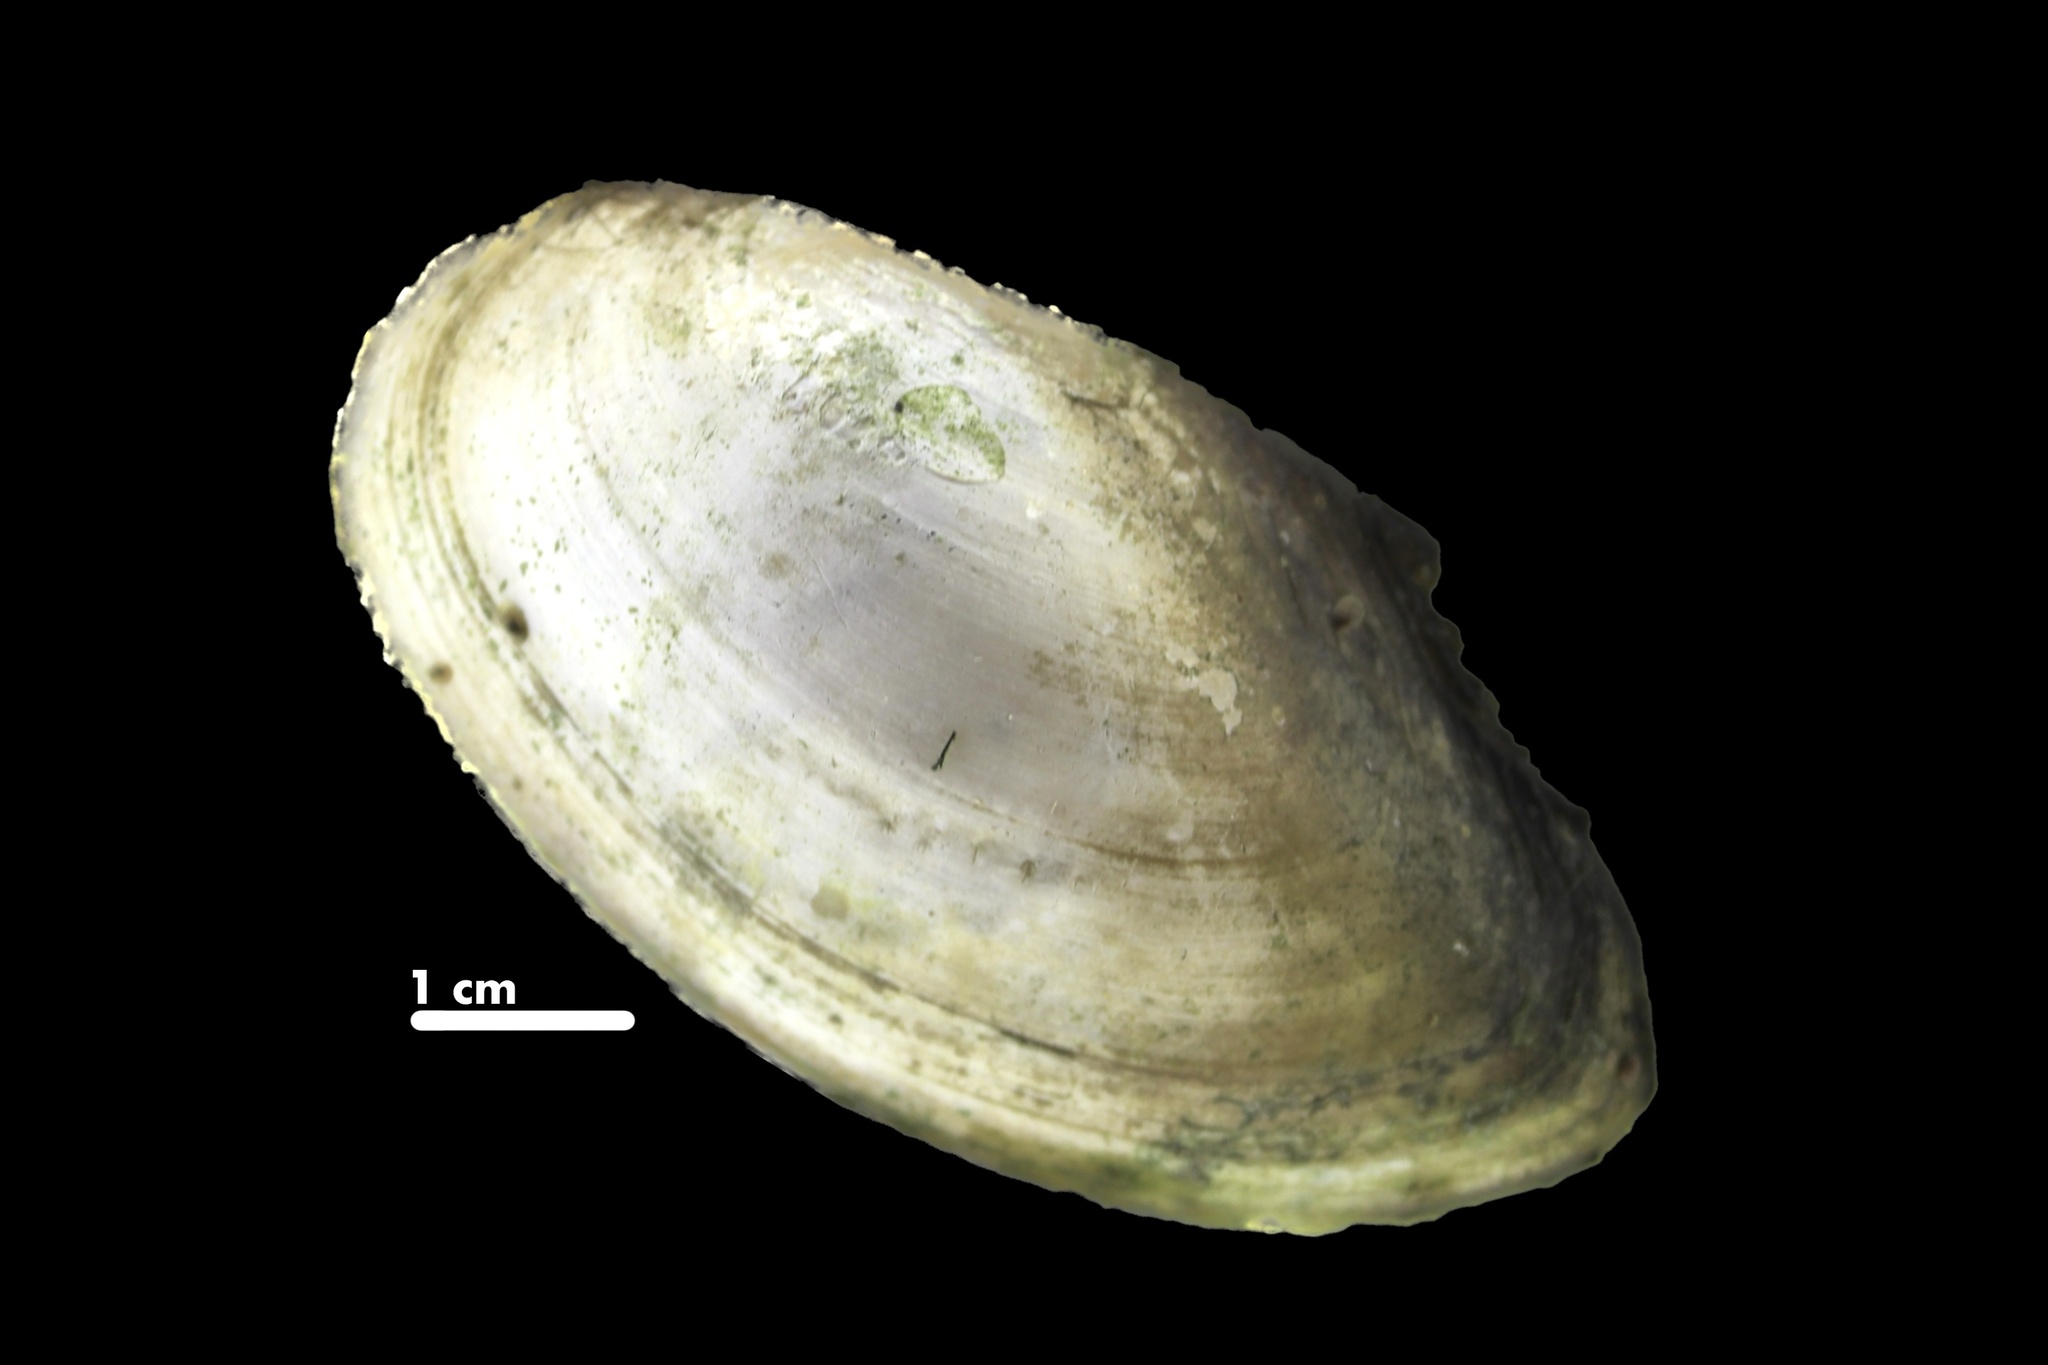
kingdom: Animalia
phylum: Mollusca
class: Bivalvia
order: Unionida
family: Unionidae
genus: Utterbackia
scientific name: Utterbackia imbecillis
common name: Paper pondshell
